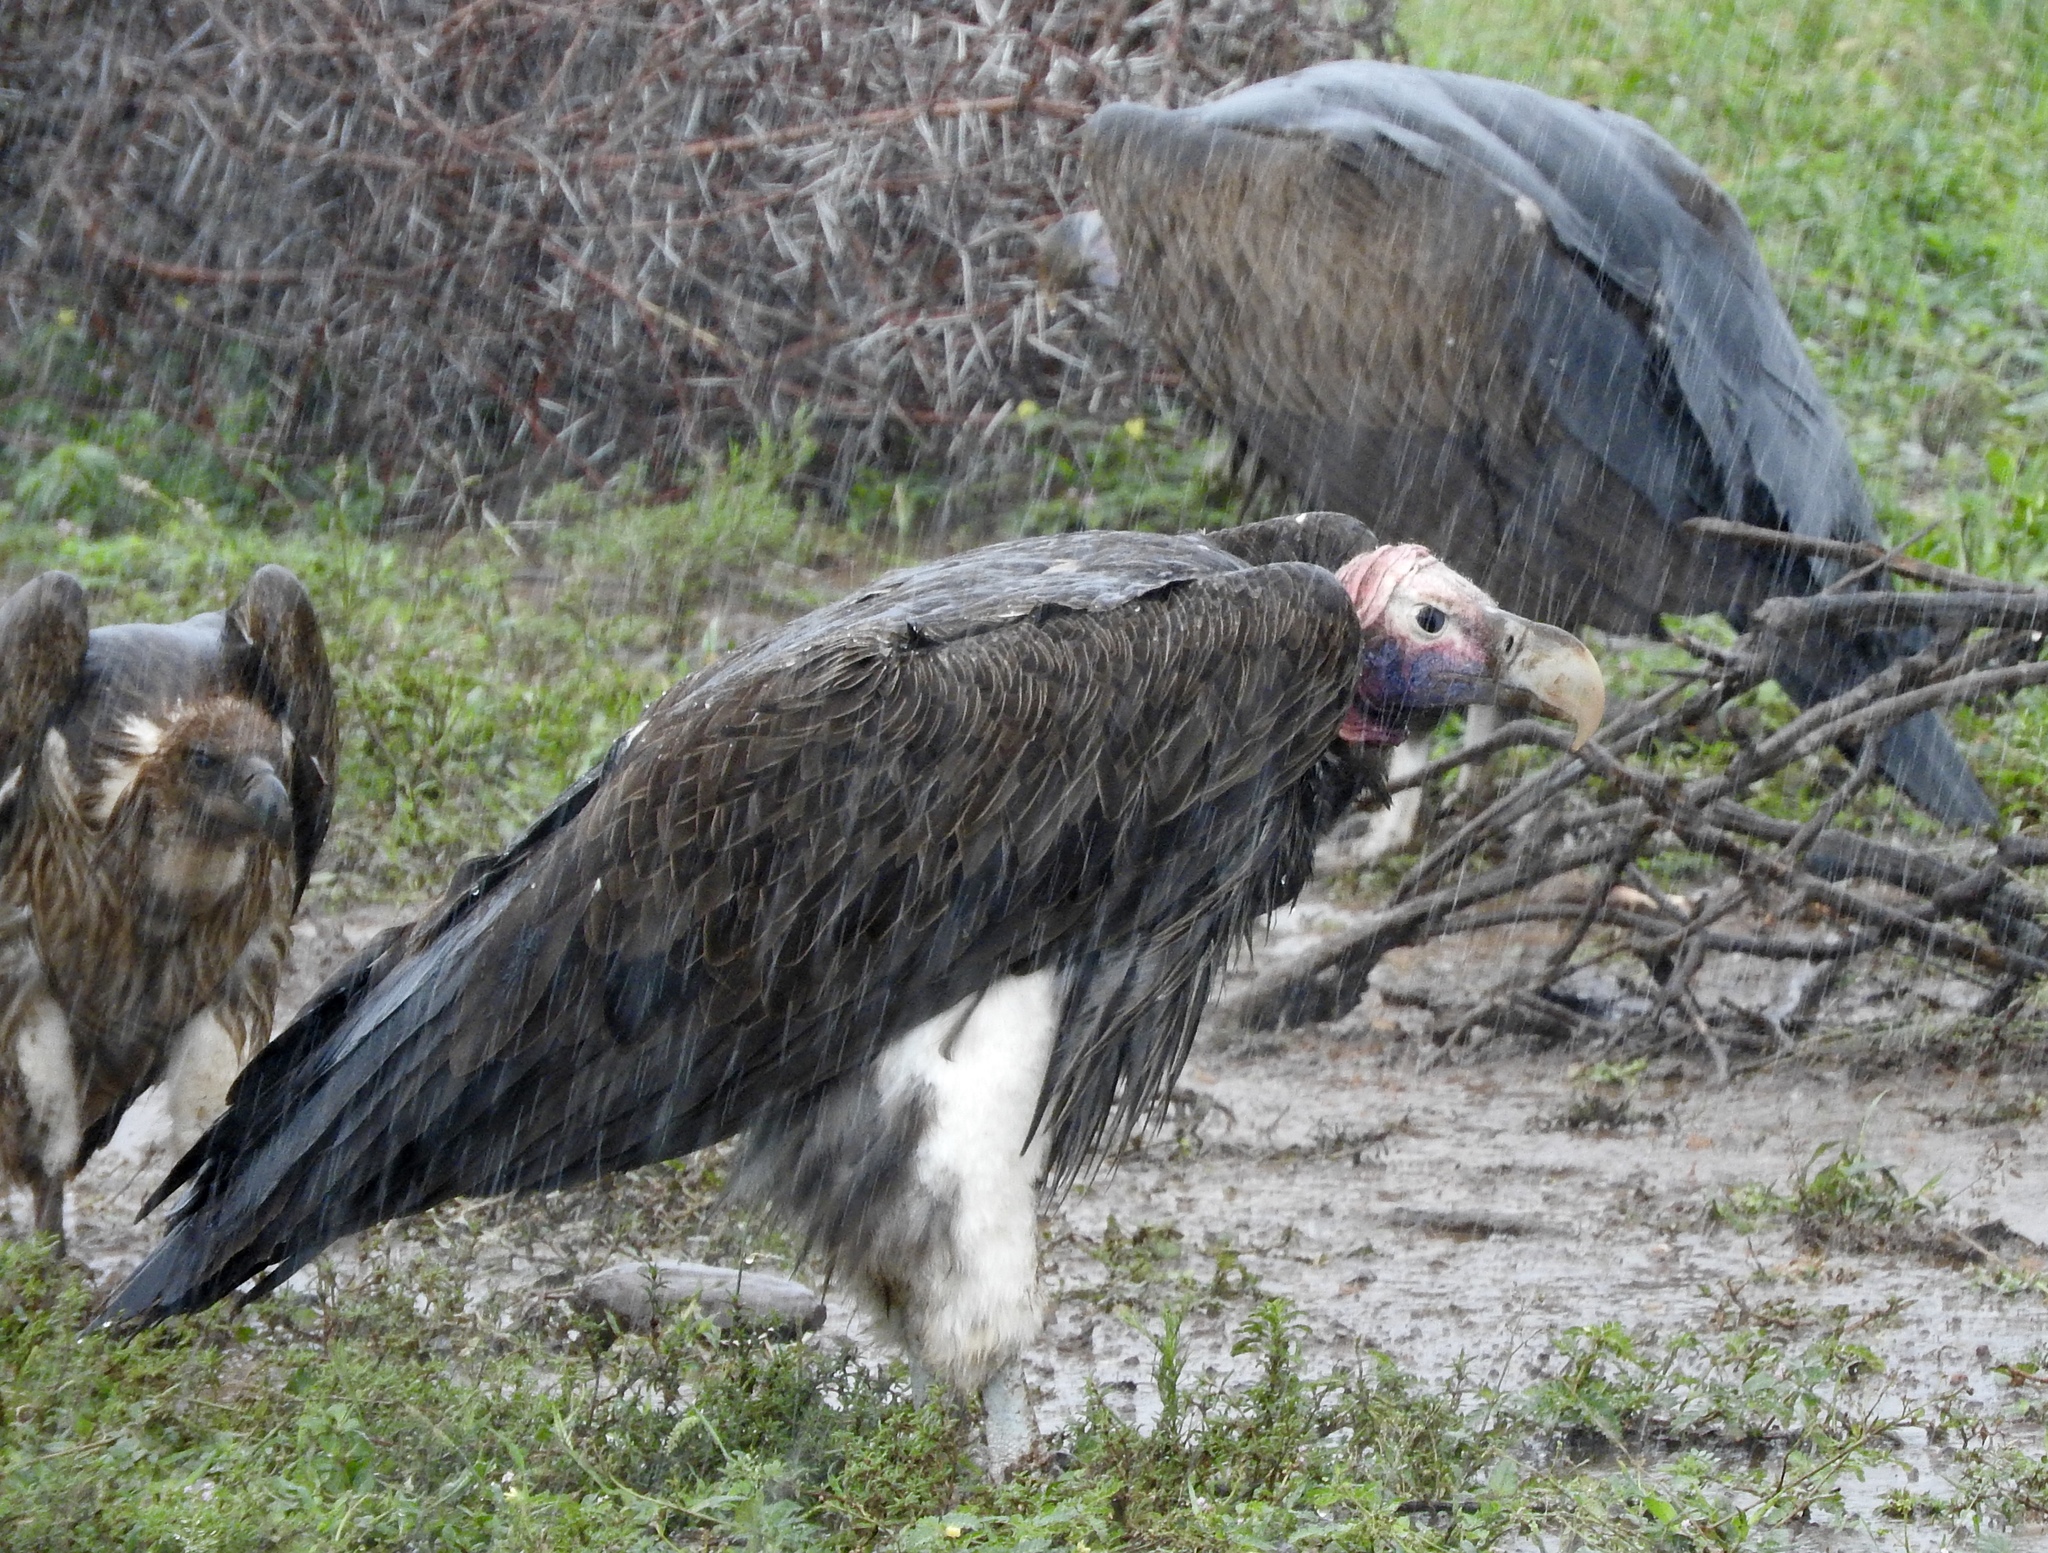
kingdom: Animalia
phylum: Chordata
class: Aves
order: Accipitriformes
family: Accipitridae
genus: Torgos
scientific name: Torgos tracheliotos
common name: Lappet-faced vulture
